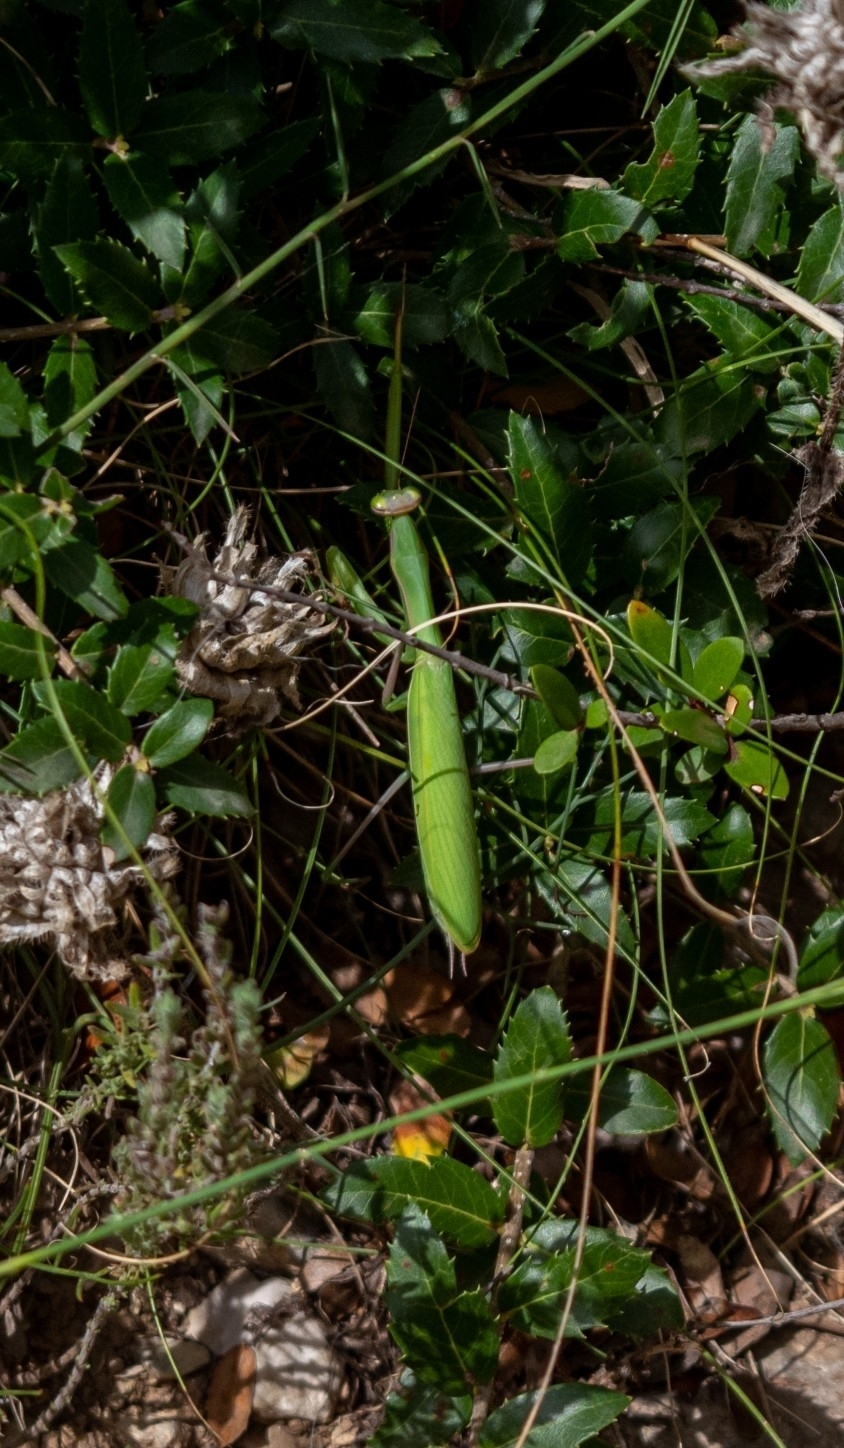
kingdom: Animalia
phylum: Arthropoda
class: Insecta
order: Mantodea
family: Mantidae
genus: Mantis
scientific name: Mantis religiosa
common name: Praying mantis
